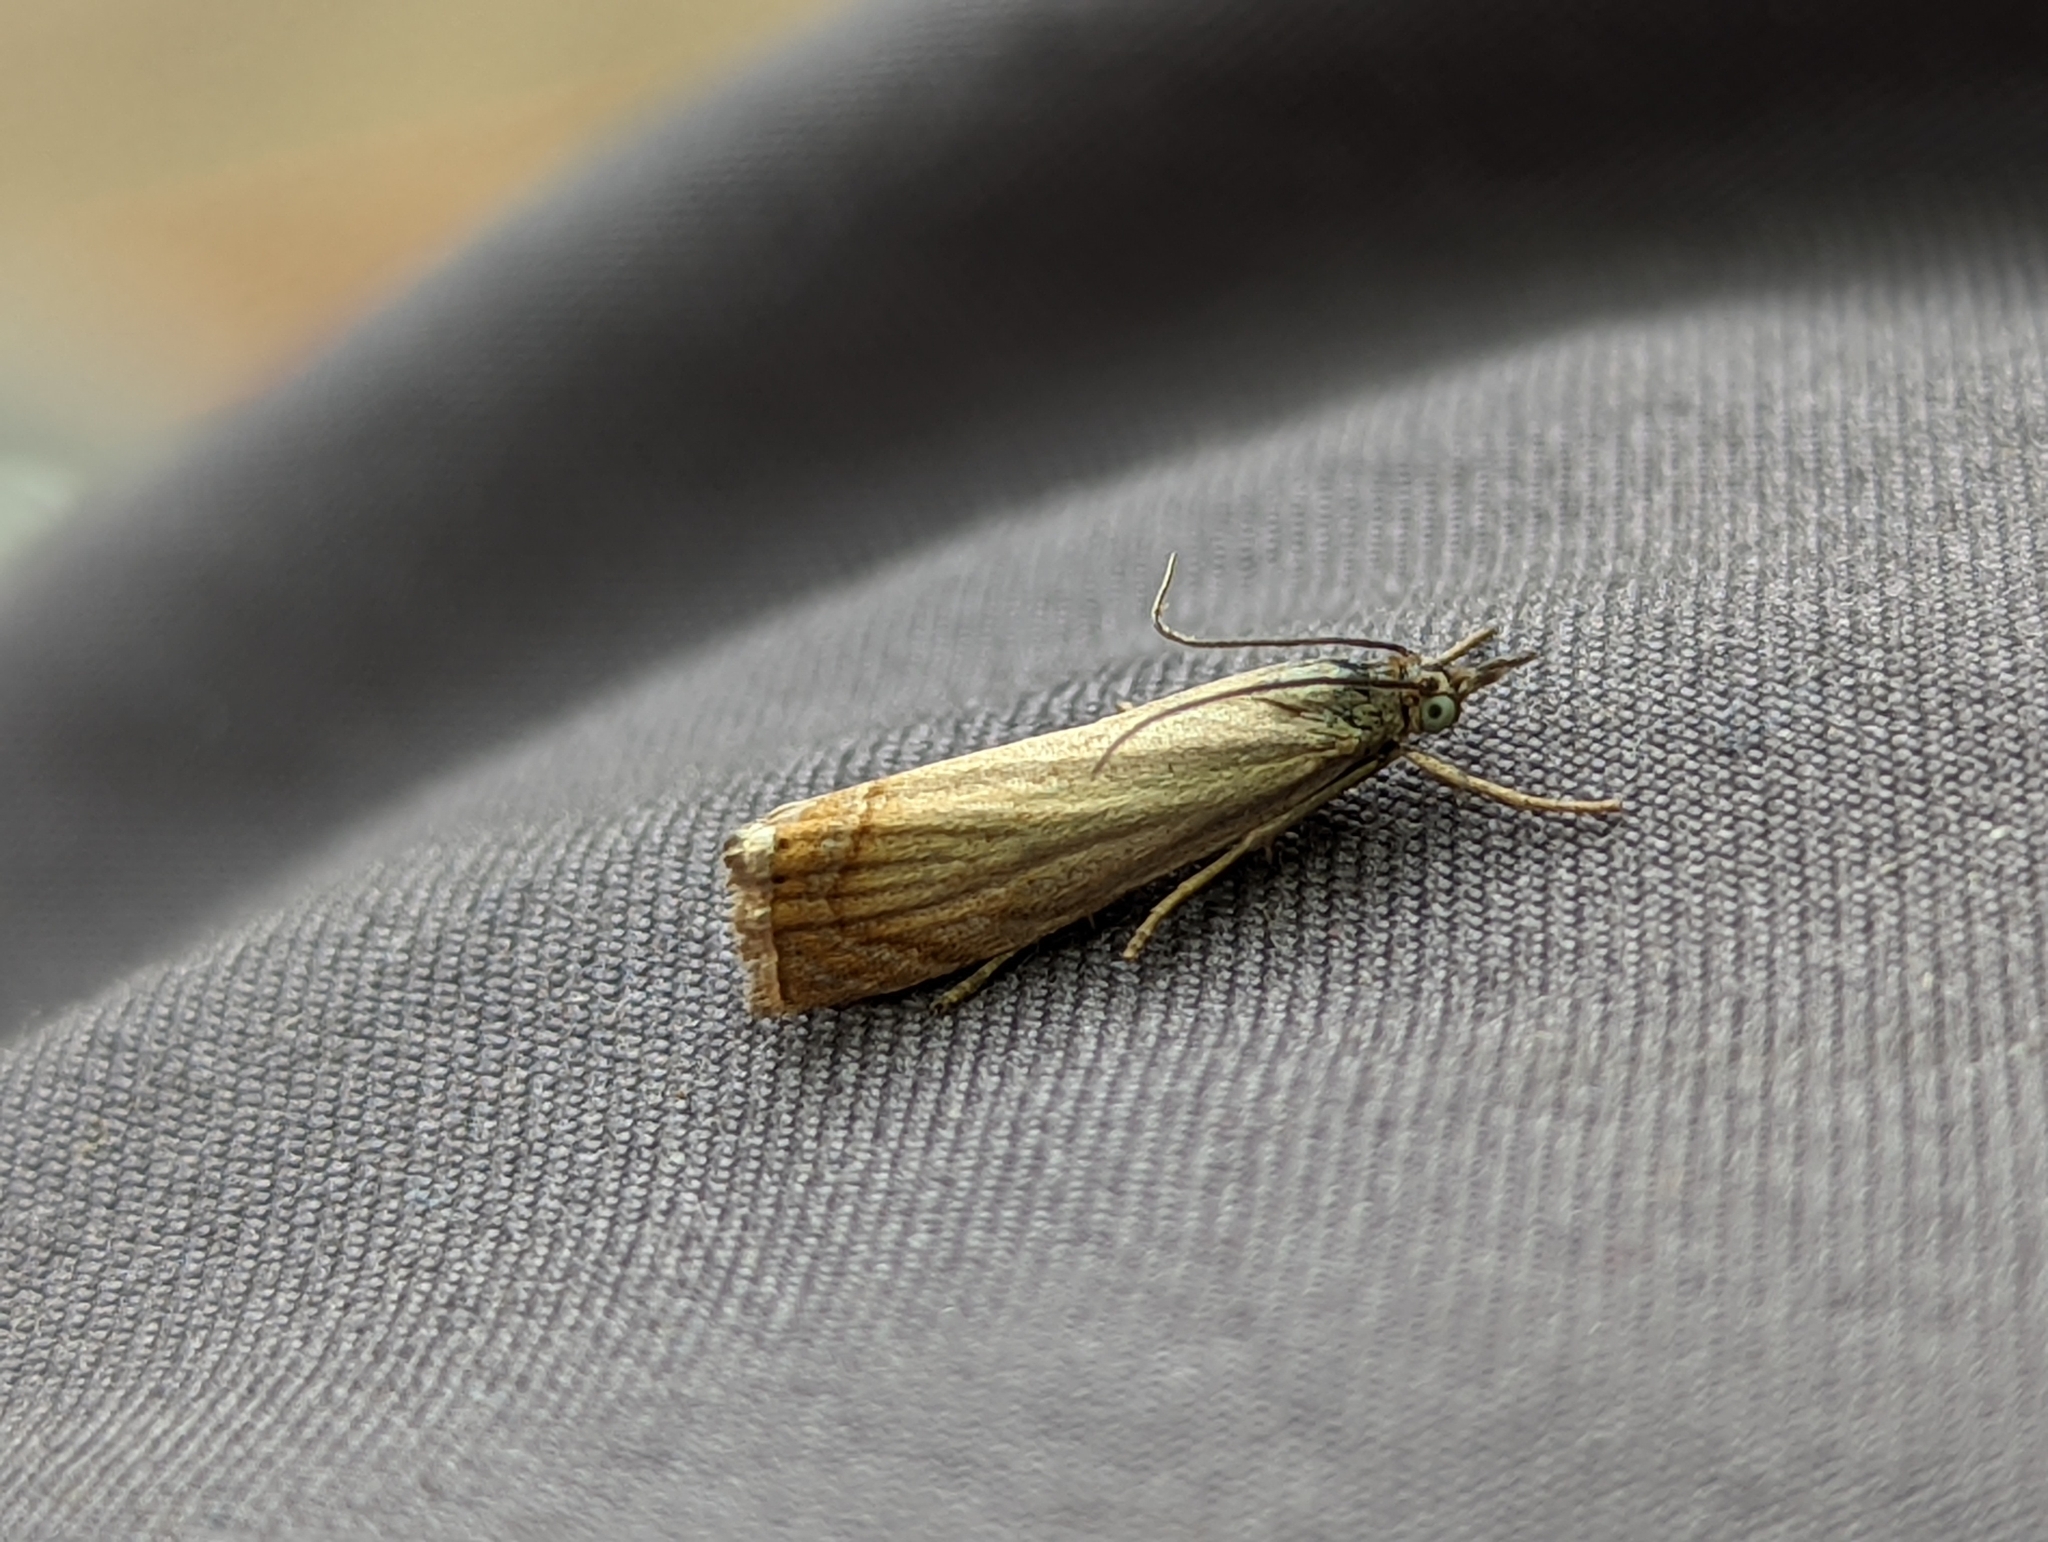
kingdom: Animalia
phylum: Arthropoda
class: Insecta
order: Lepidoptera
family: Crambidae
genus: Chrysoteuchia
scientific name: Chrysoteuchia culmella
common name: Garden grass-veneer
